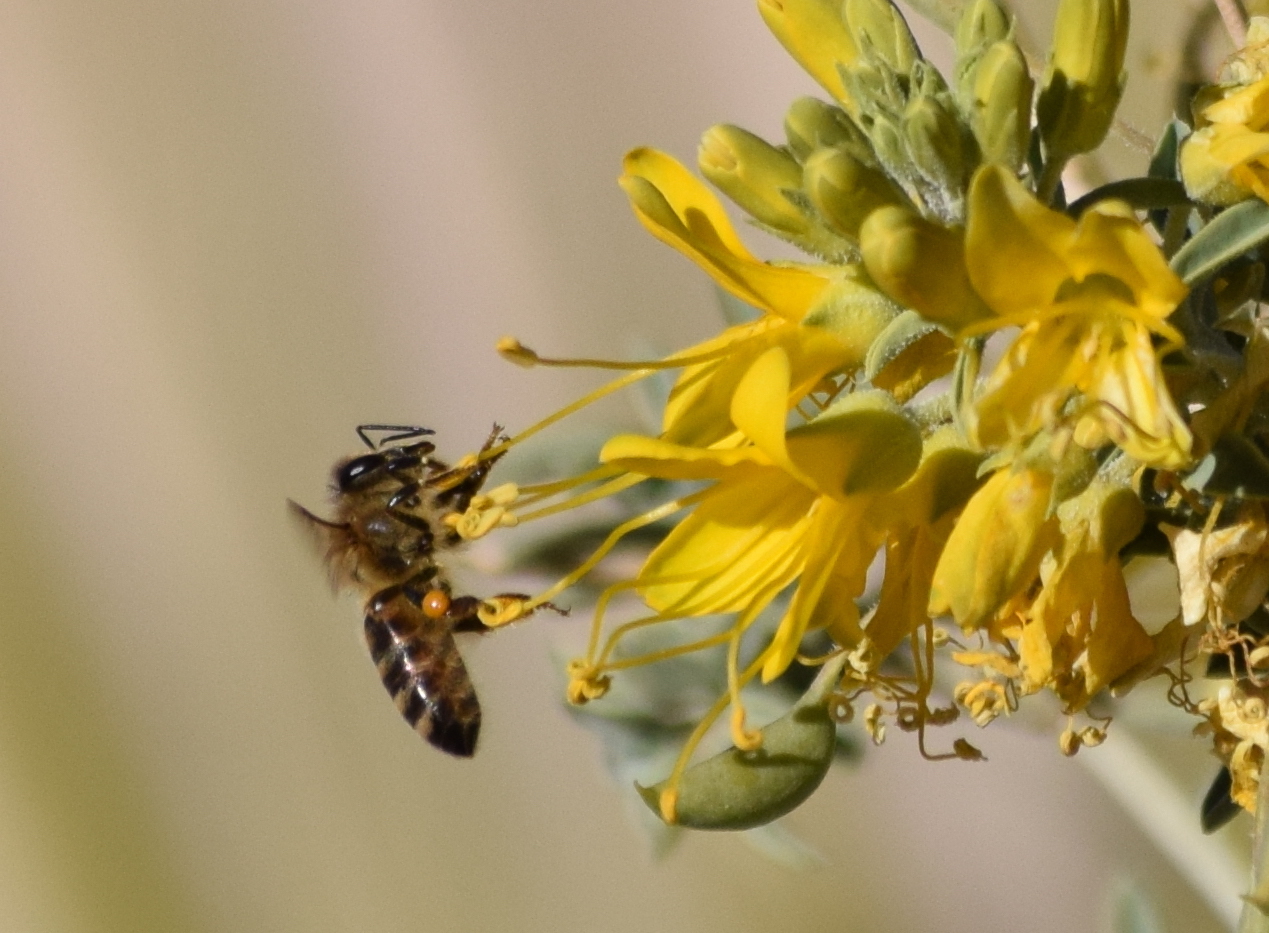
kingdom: Animalia
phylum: Arthropoda
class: Insecta
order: Hymenoptera
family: Apidae
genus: Apis
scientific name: Apis mellifera
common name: Honey bee
